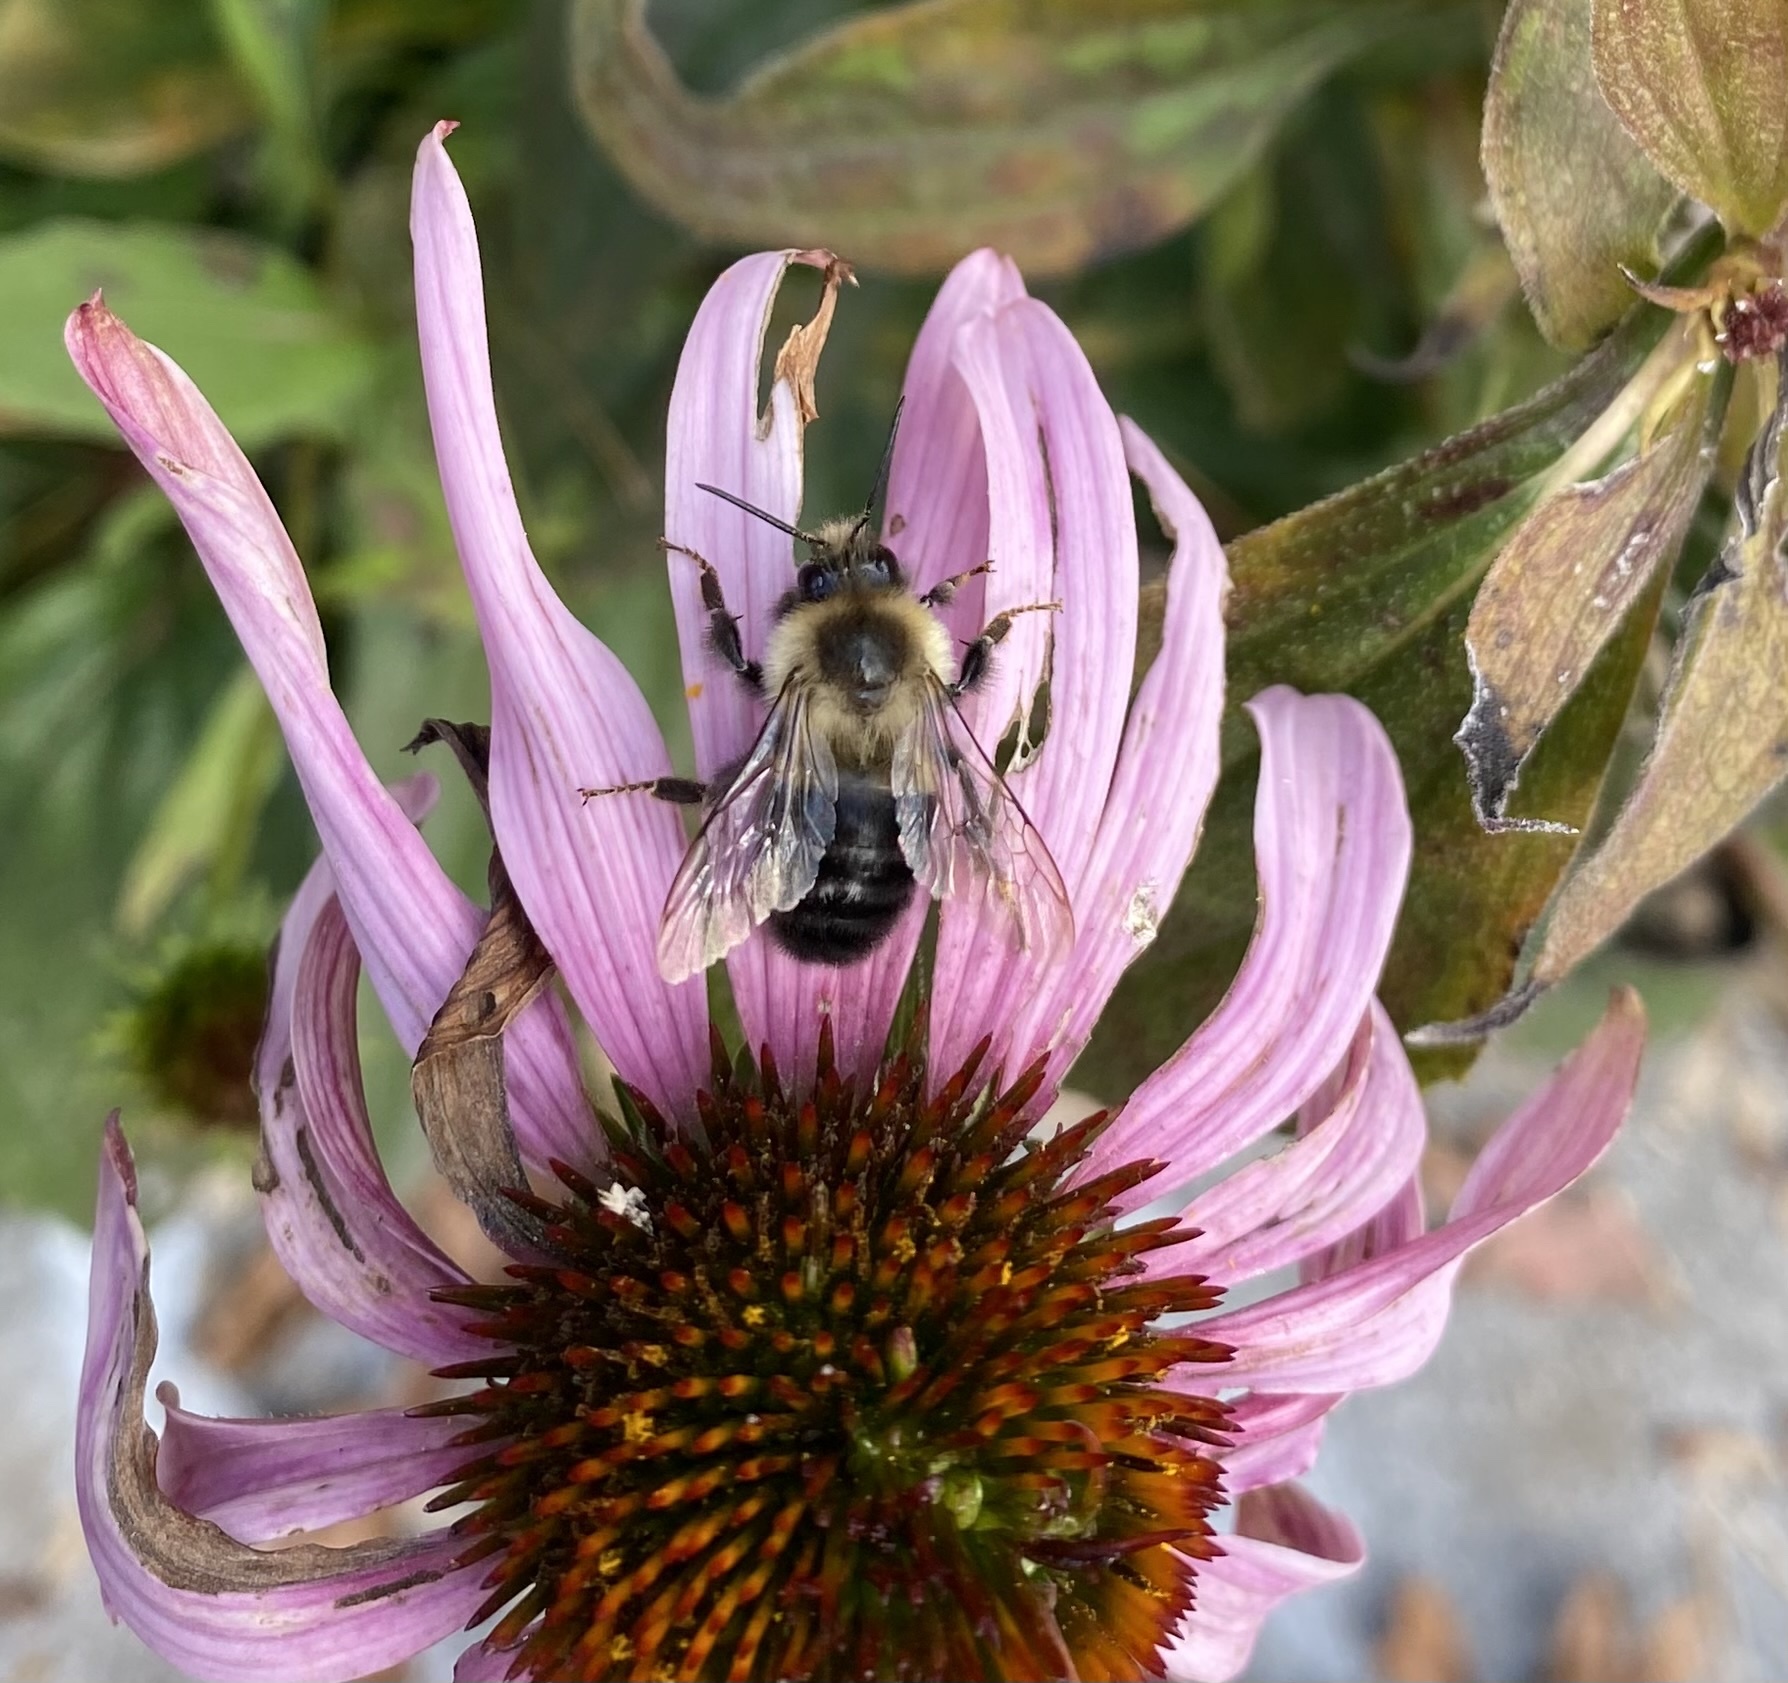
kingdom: Animalia
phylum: Arthropoda
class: Insecta
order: Hymenoptera
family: Apidae
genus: Bombus
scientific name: Bombus impatiens
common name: Common eastern bumble bee
